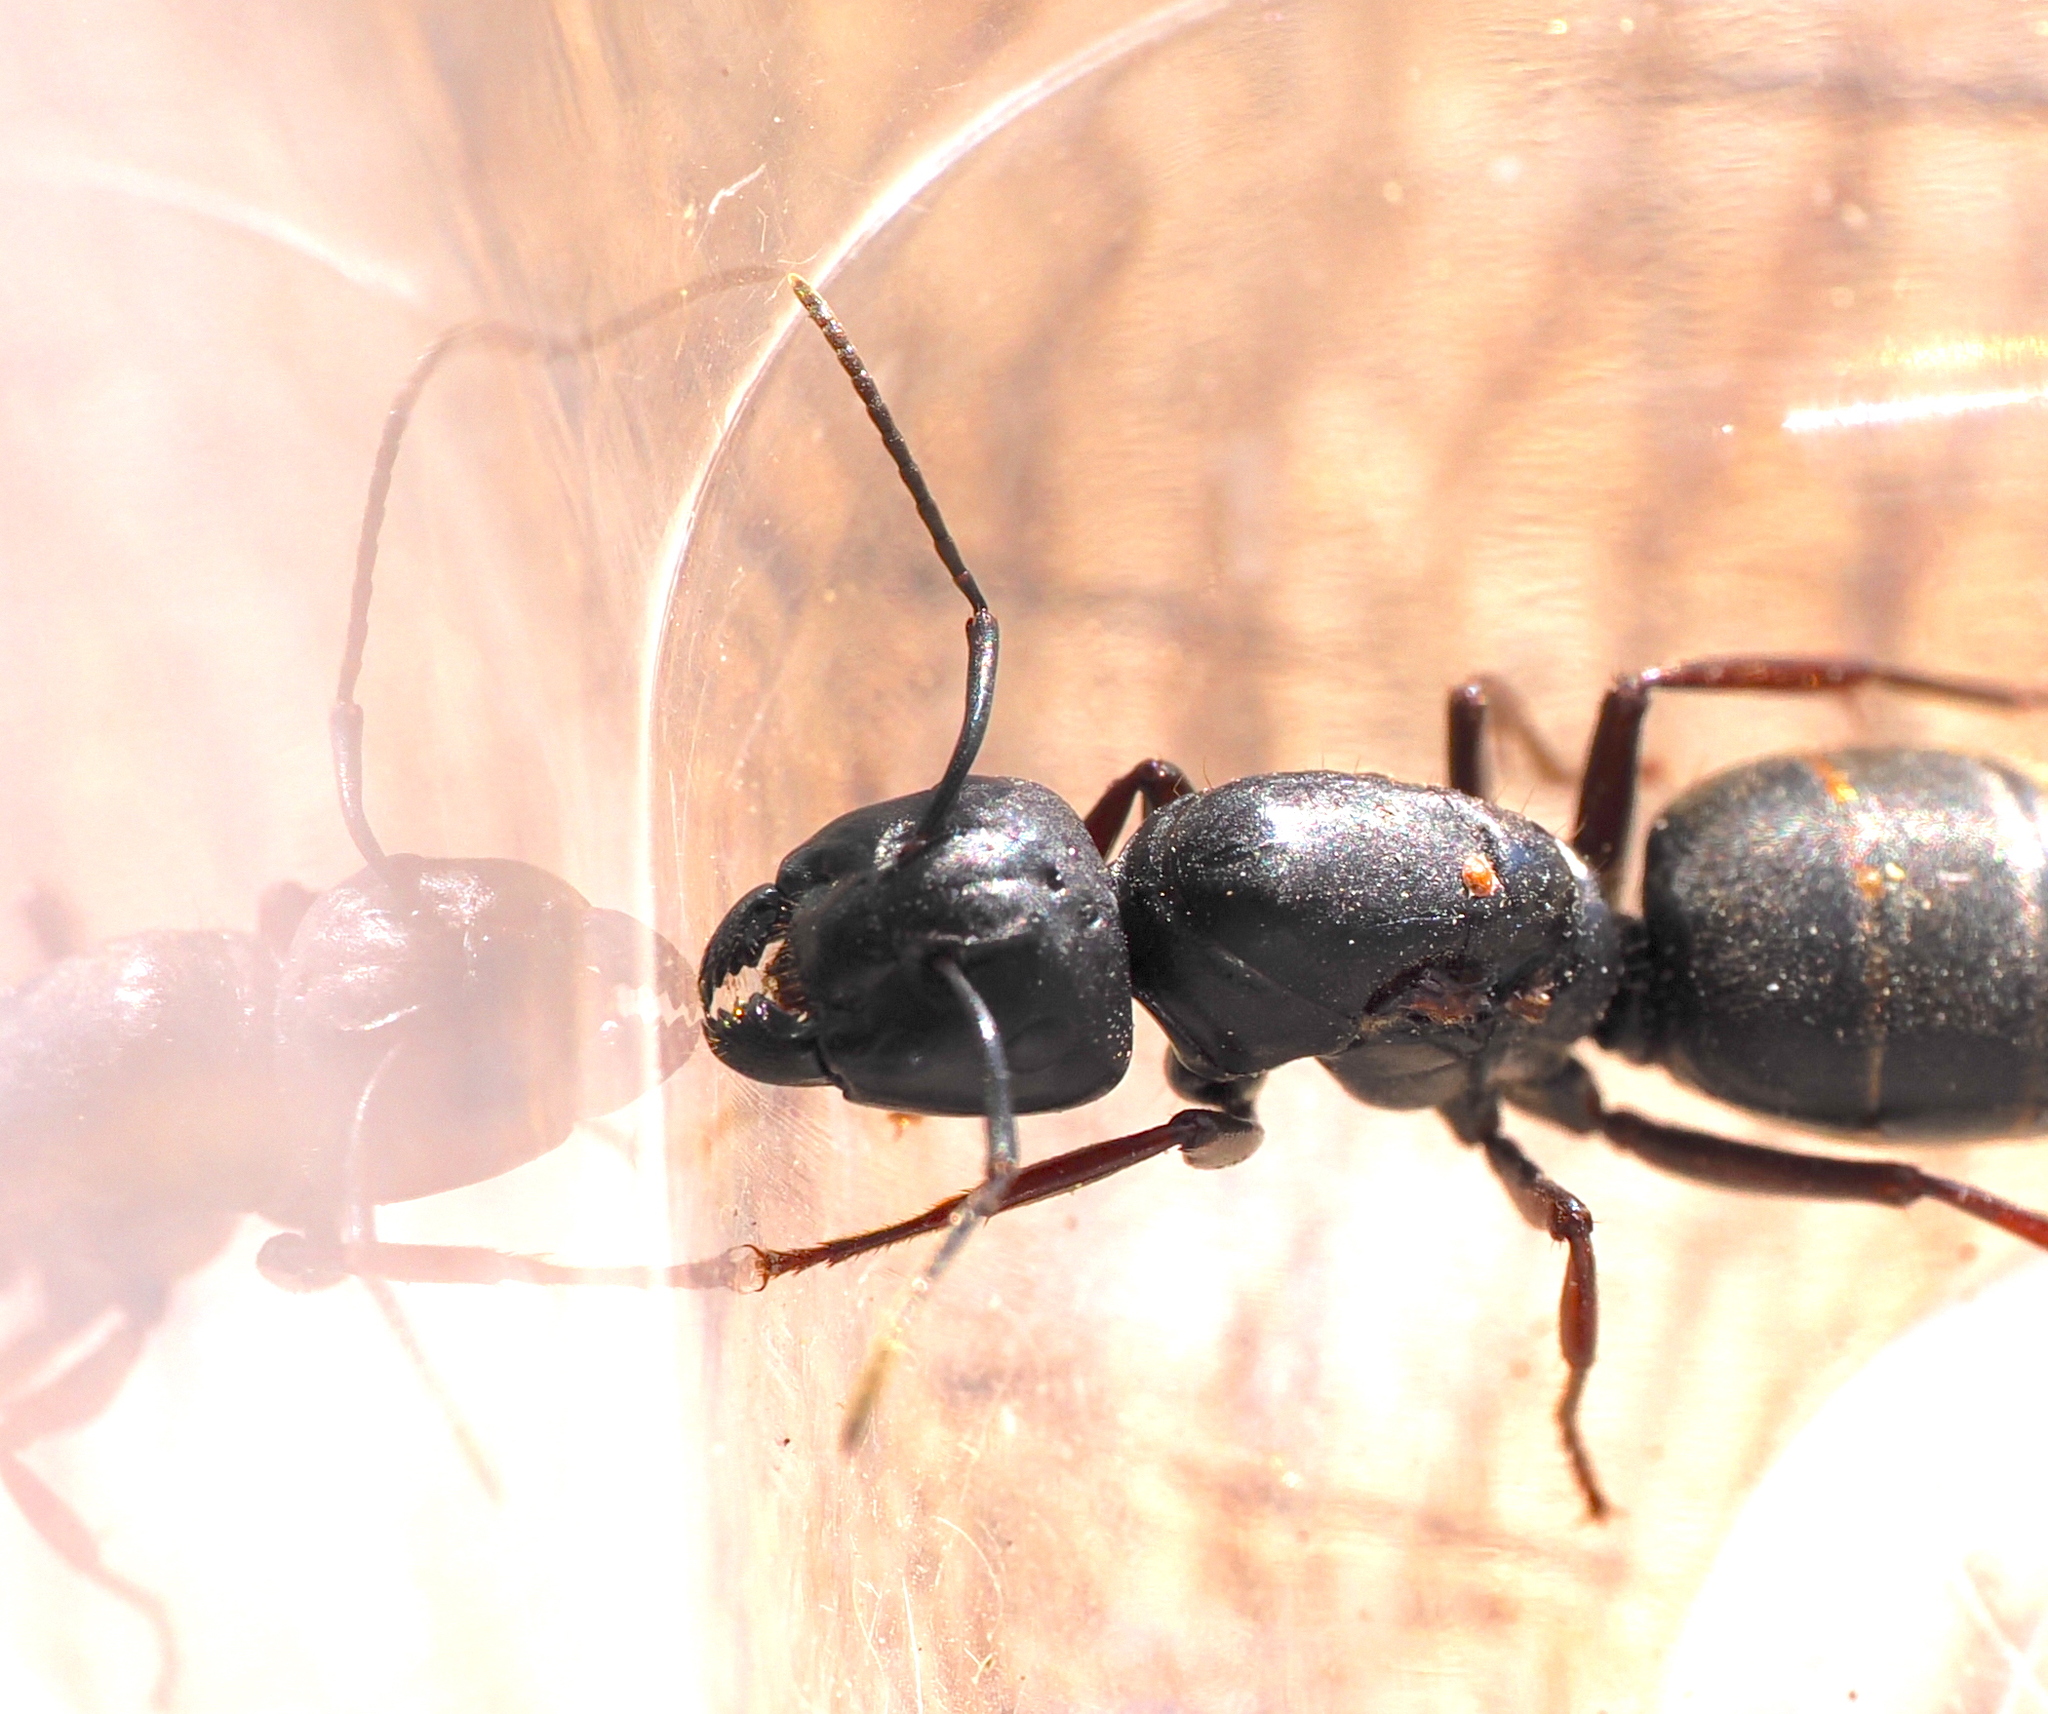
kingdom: Animalia
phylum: Arthropoda
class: Insecta
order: Hymenoptera
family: Formicidae
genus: Camponotus
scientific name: Camponotus modoc
